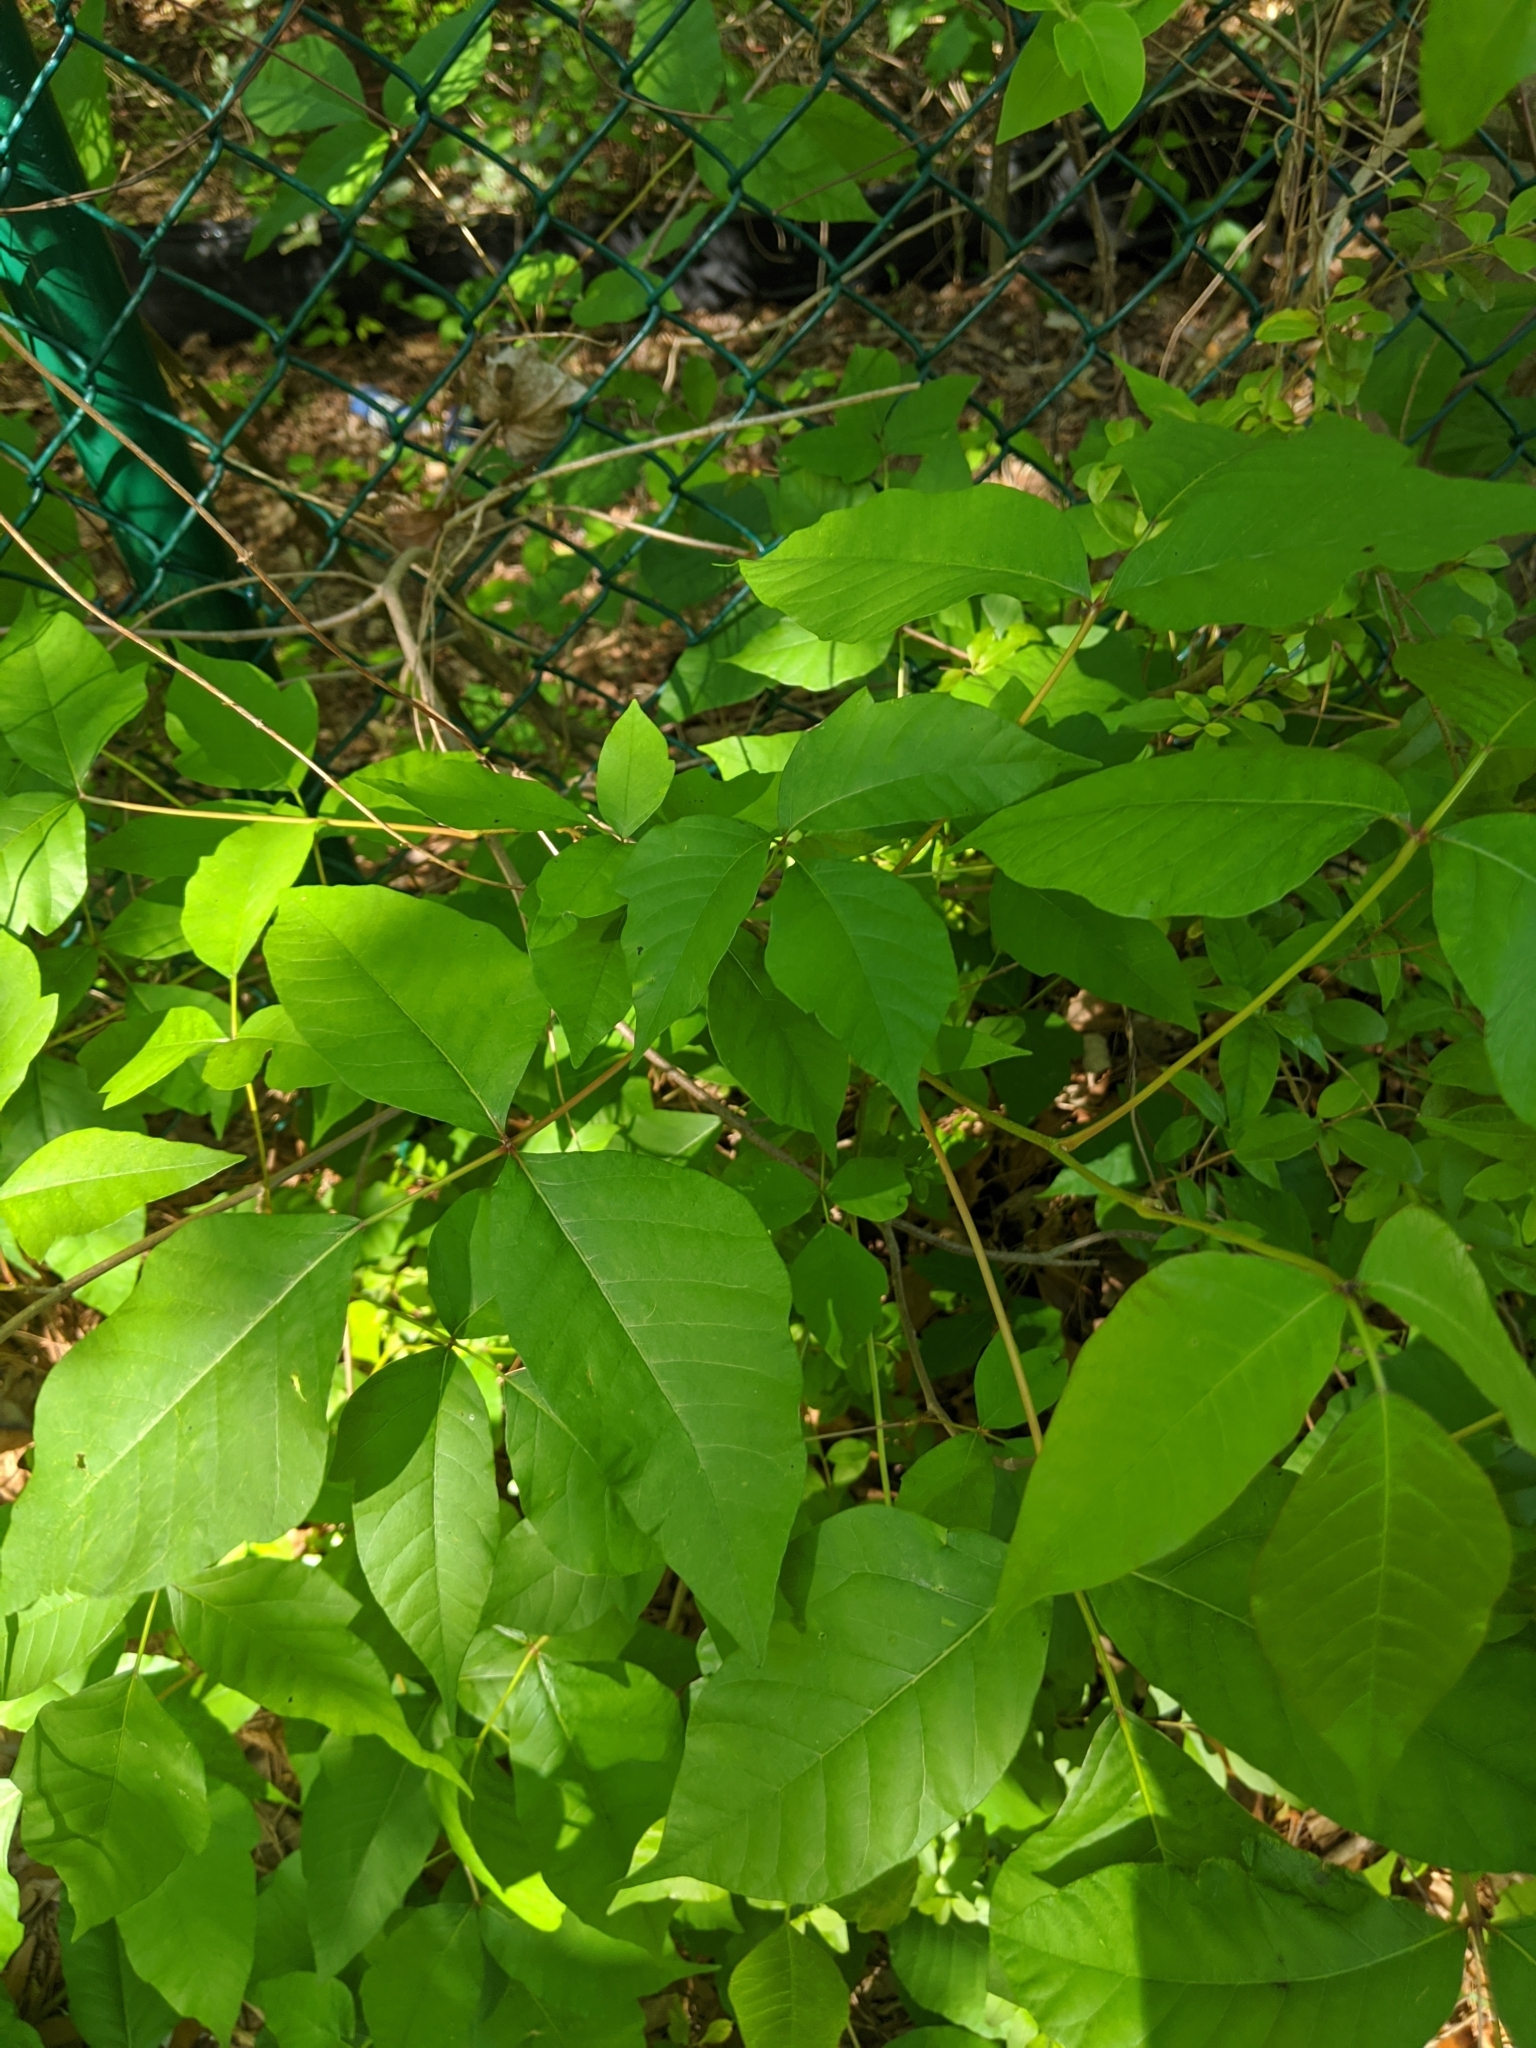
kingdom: Plantae
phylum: Tracheophyta
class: Magnoliopsida
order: Sapindales
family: Anacardiaceae
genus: Toxicodendron
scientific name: Toxicodendron radicans
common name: Poison ivy
